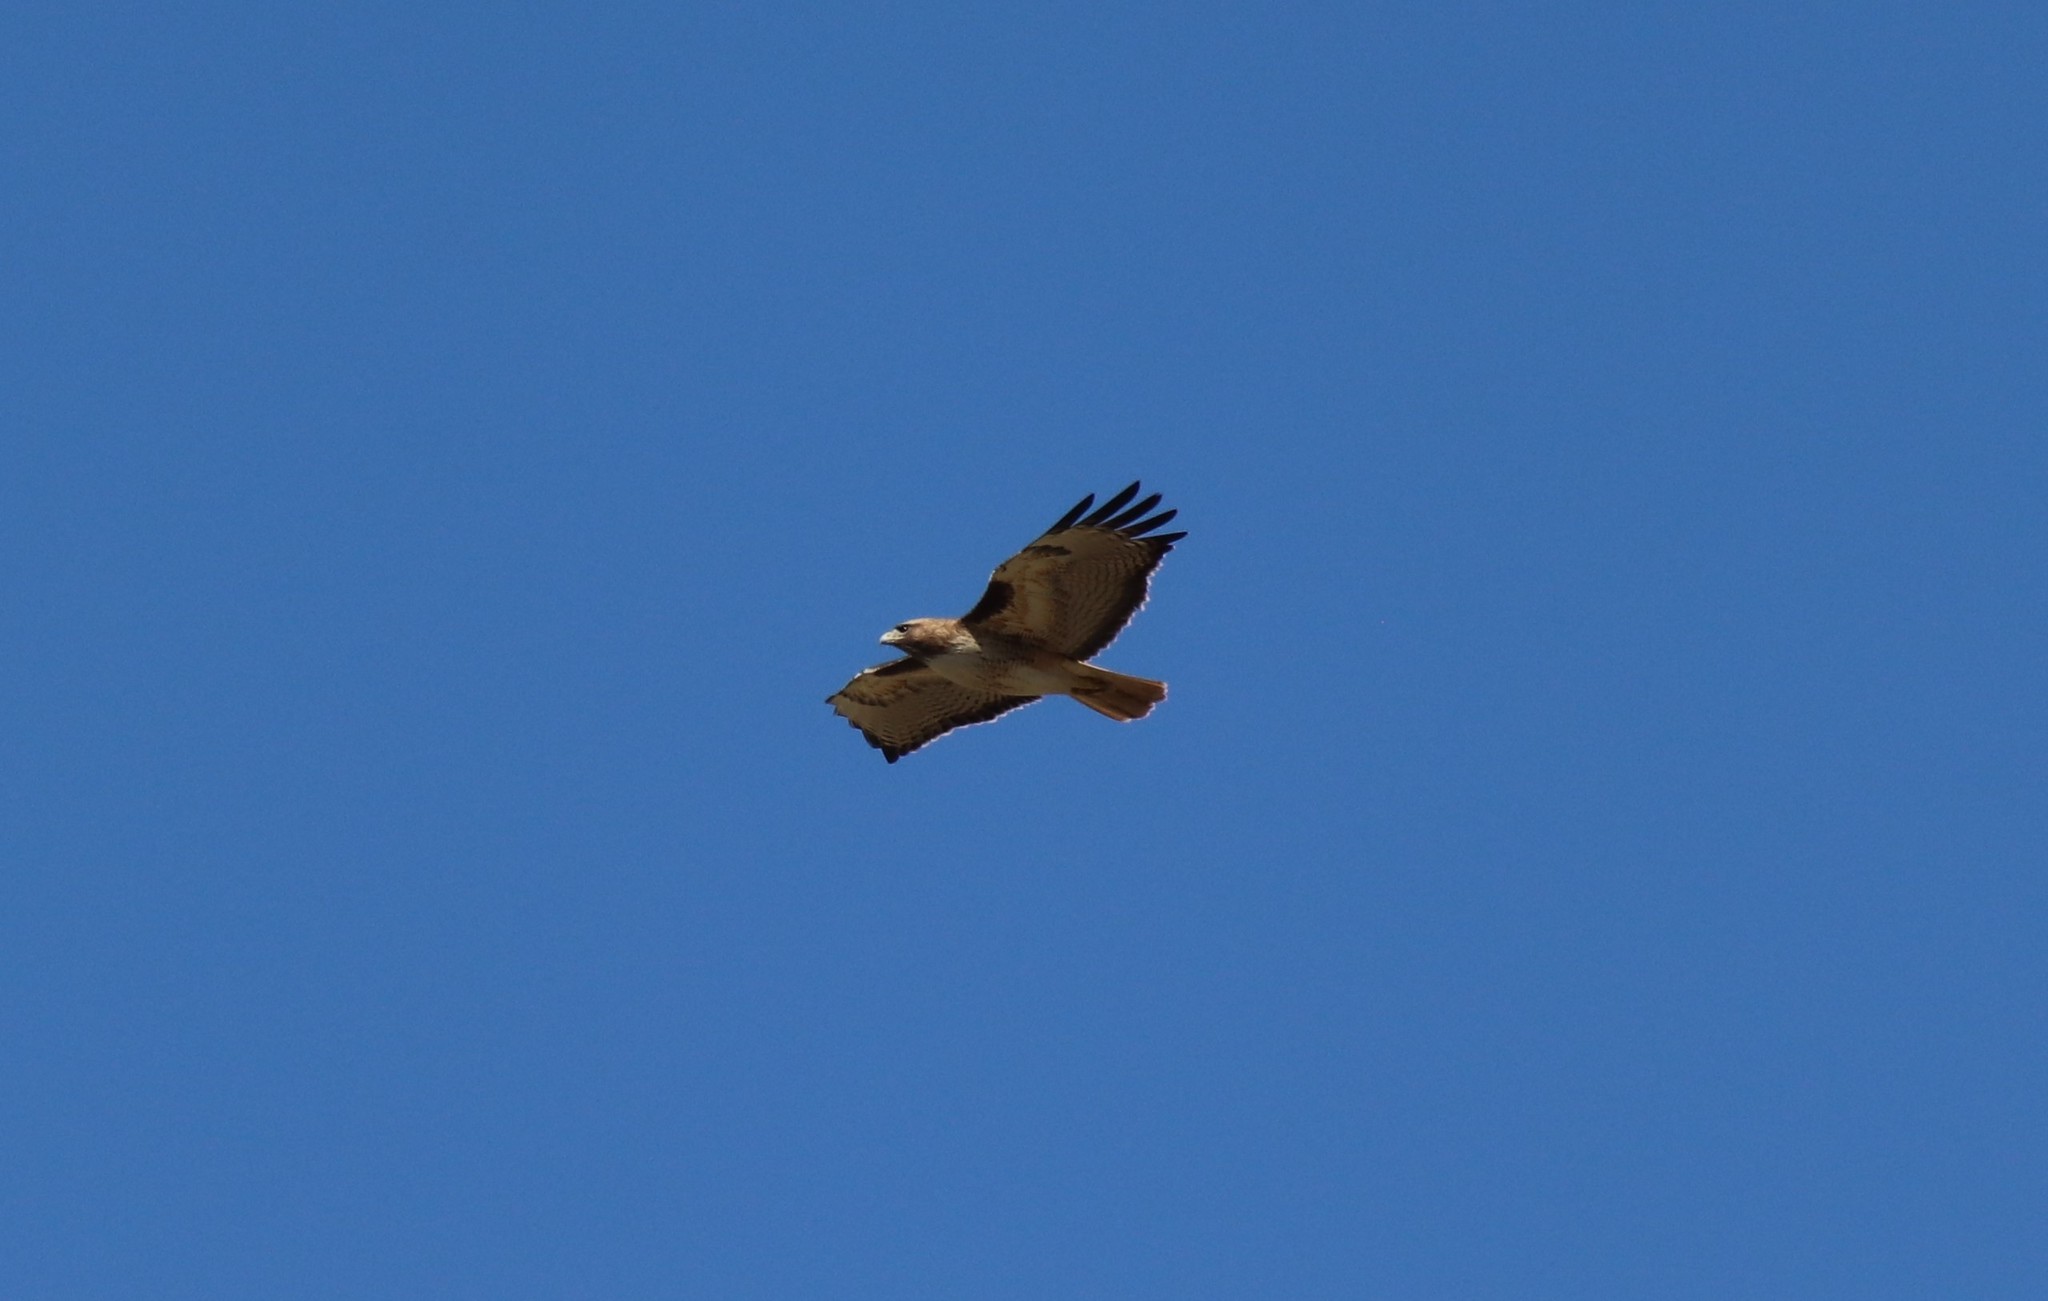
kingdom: Animalia
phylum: Chordata
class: Aves
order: Accipitriformes
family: Accipitridae
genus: Buteo
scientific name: Buteo jamaicensis
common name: Red-tailed hawk
